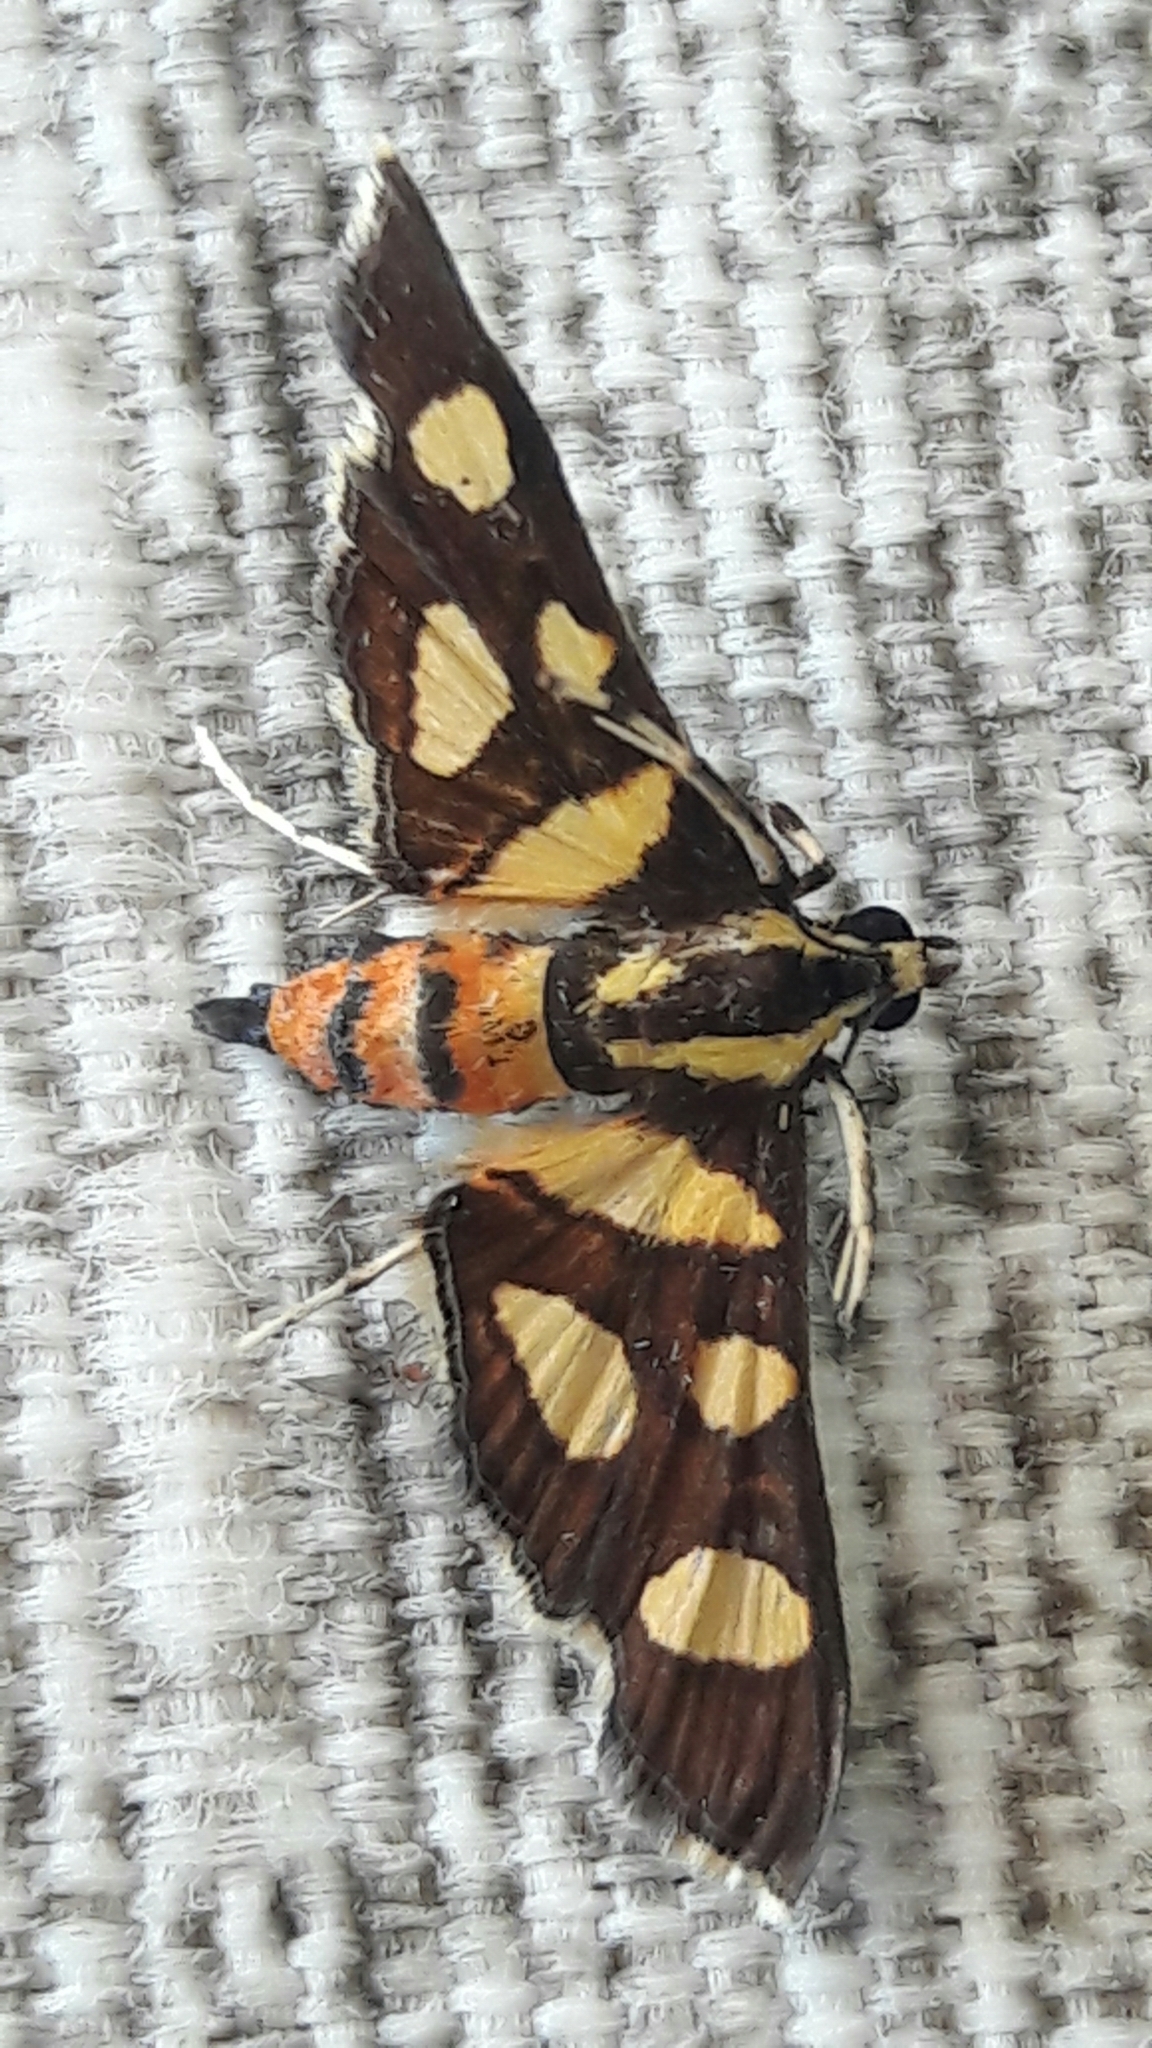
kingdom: Animalia
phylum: Arthropoda
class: Insecta
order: Lepidoptera
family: Crambidae
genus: Syngamia
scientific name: Syngamia florella
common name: Orange-spotted flower moth
